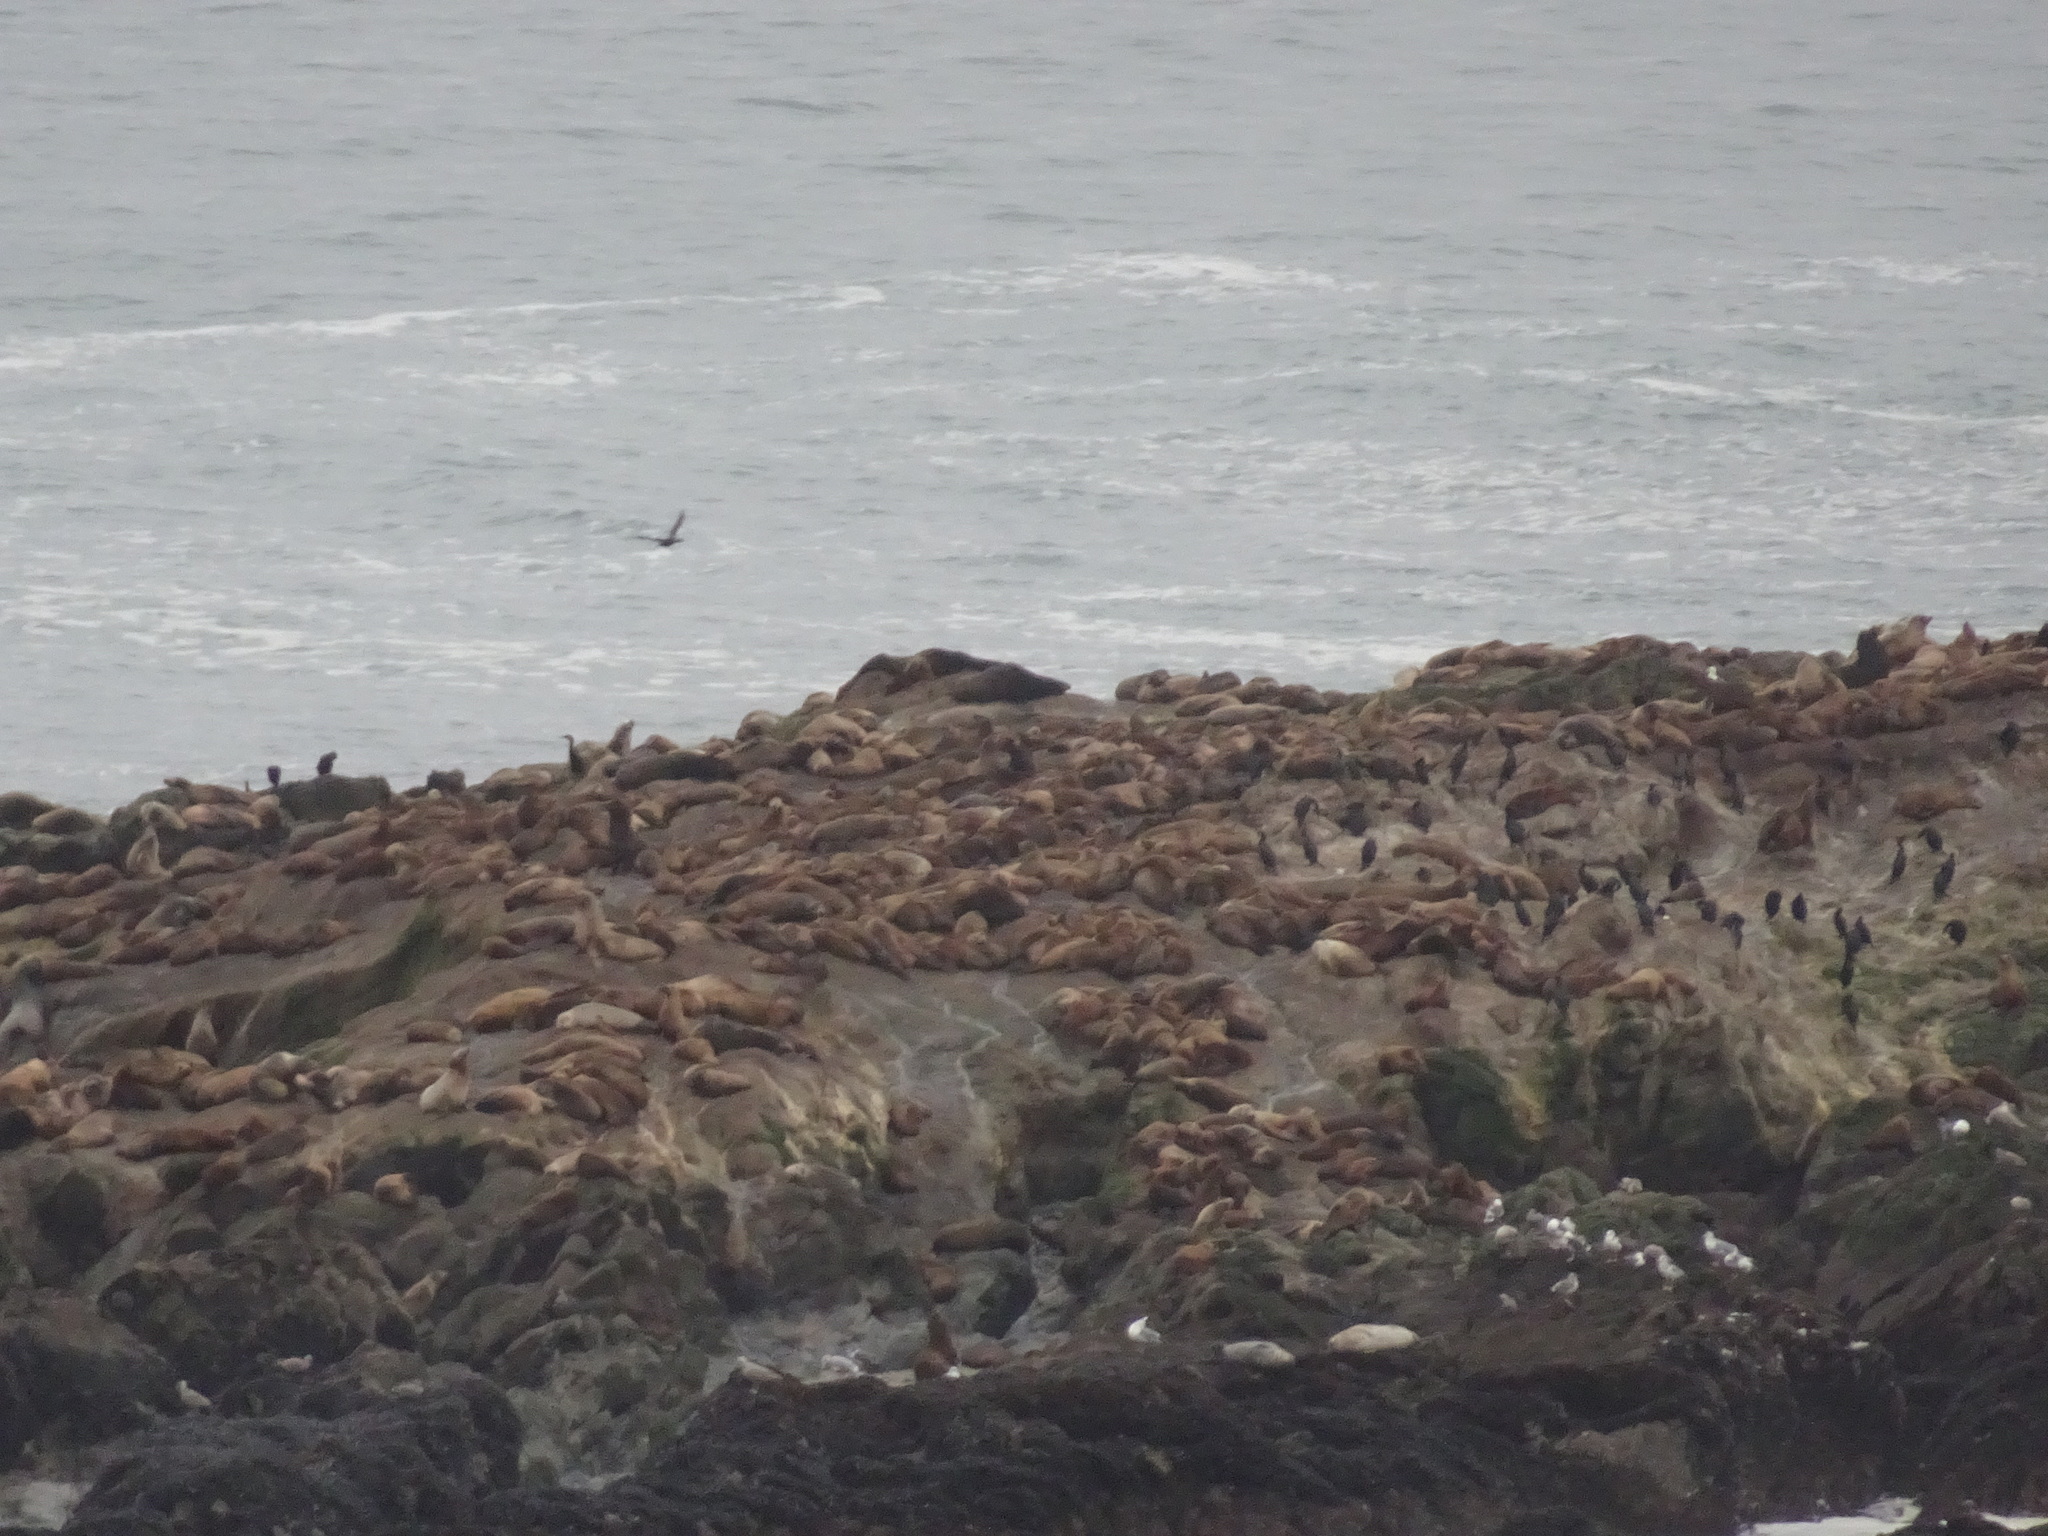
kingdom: Animalia
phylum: Chordata
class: Mammalia
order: Carnivora
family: Otariidae
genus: Zalophus
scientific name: Zalophus californianus
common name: California sea lion
